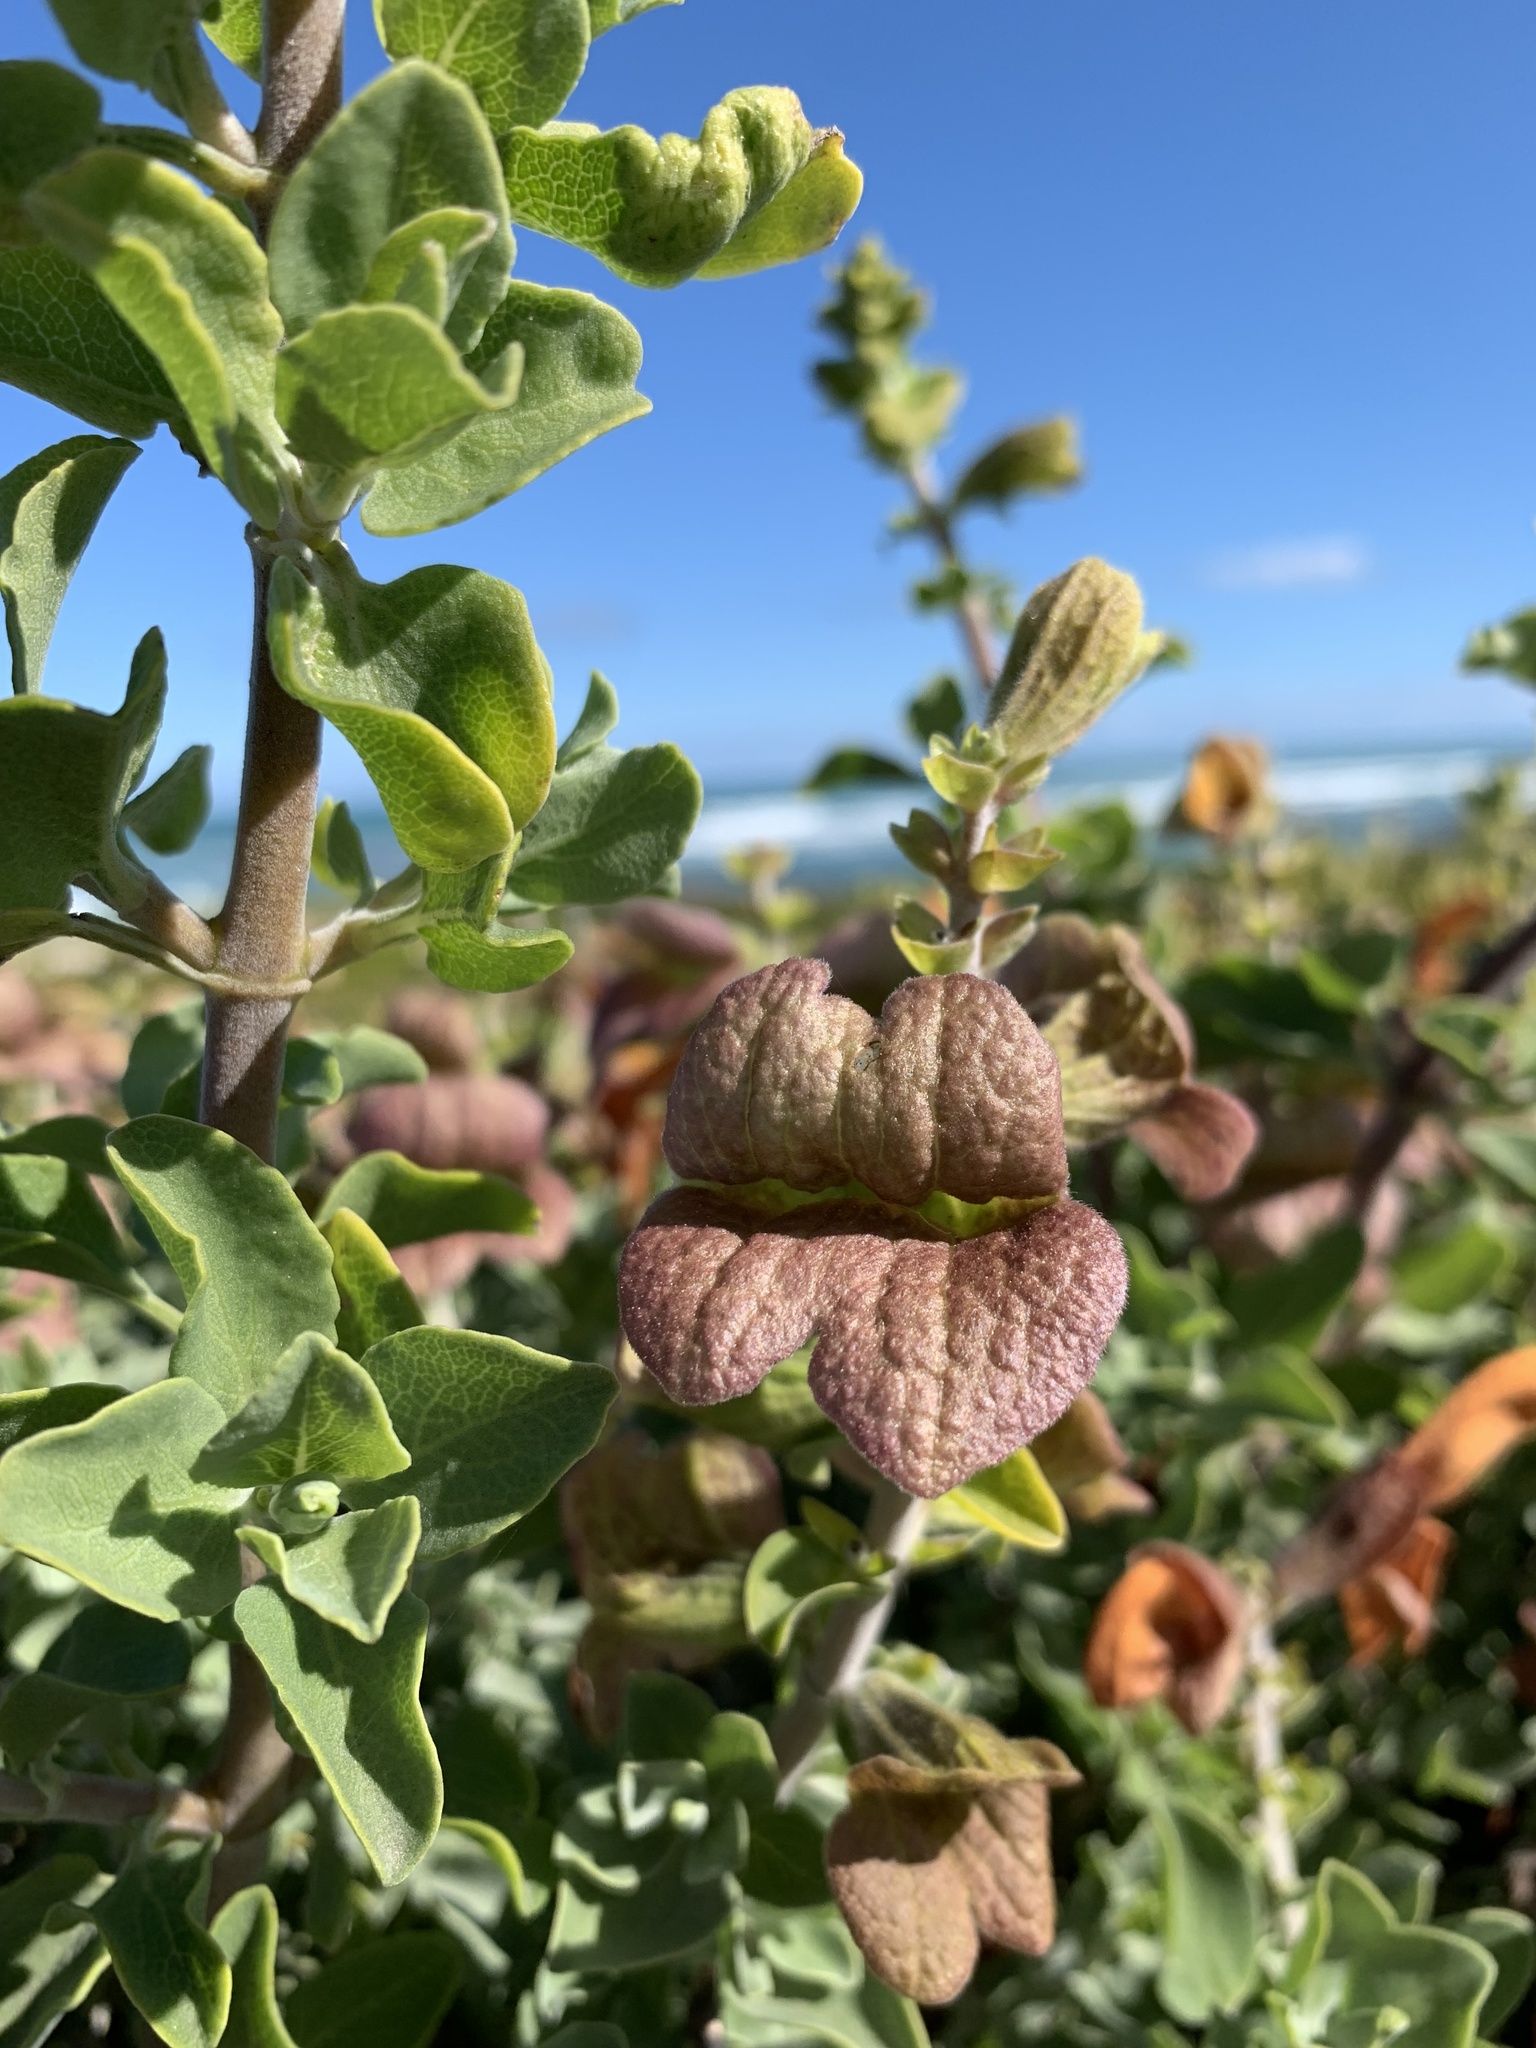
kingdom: Plantae
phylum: Tracheophyta
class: Magnoliopsida
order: Lamiales
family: Lamiaceae
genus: Salvia
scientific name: Salvia aurea
